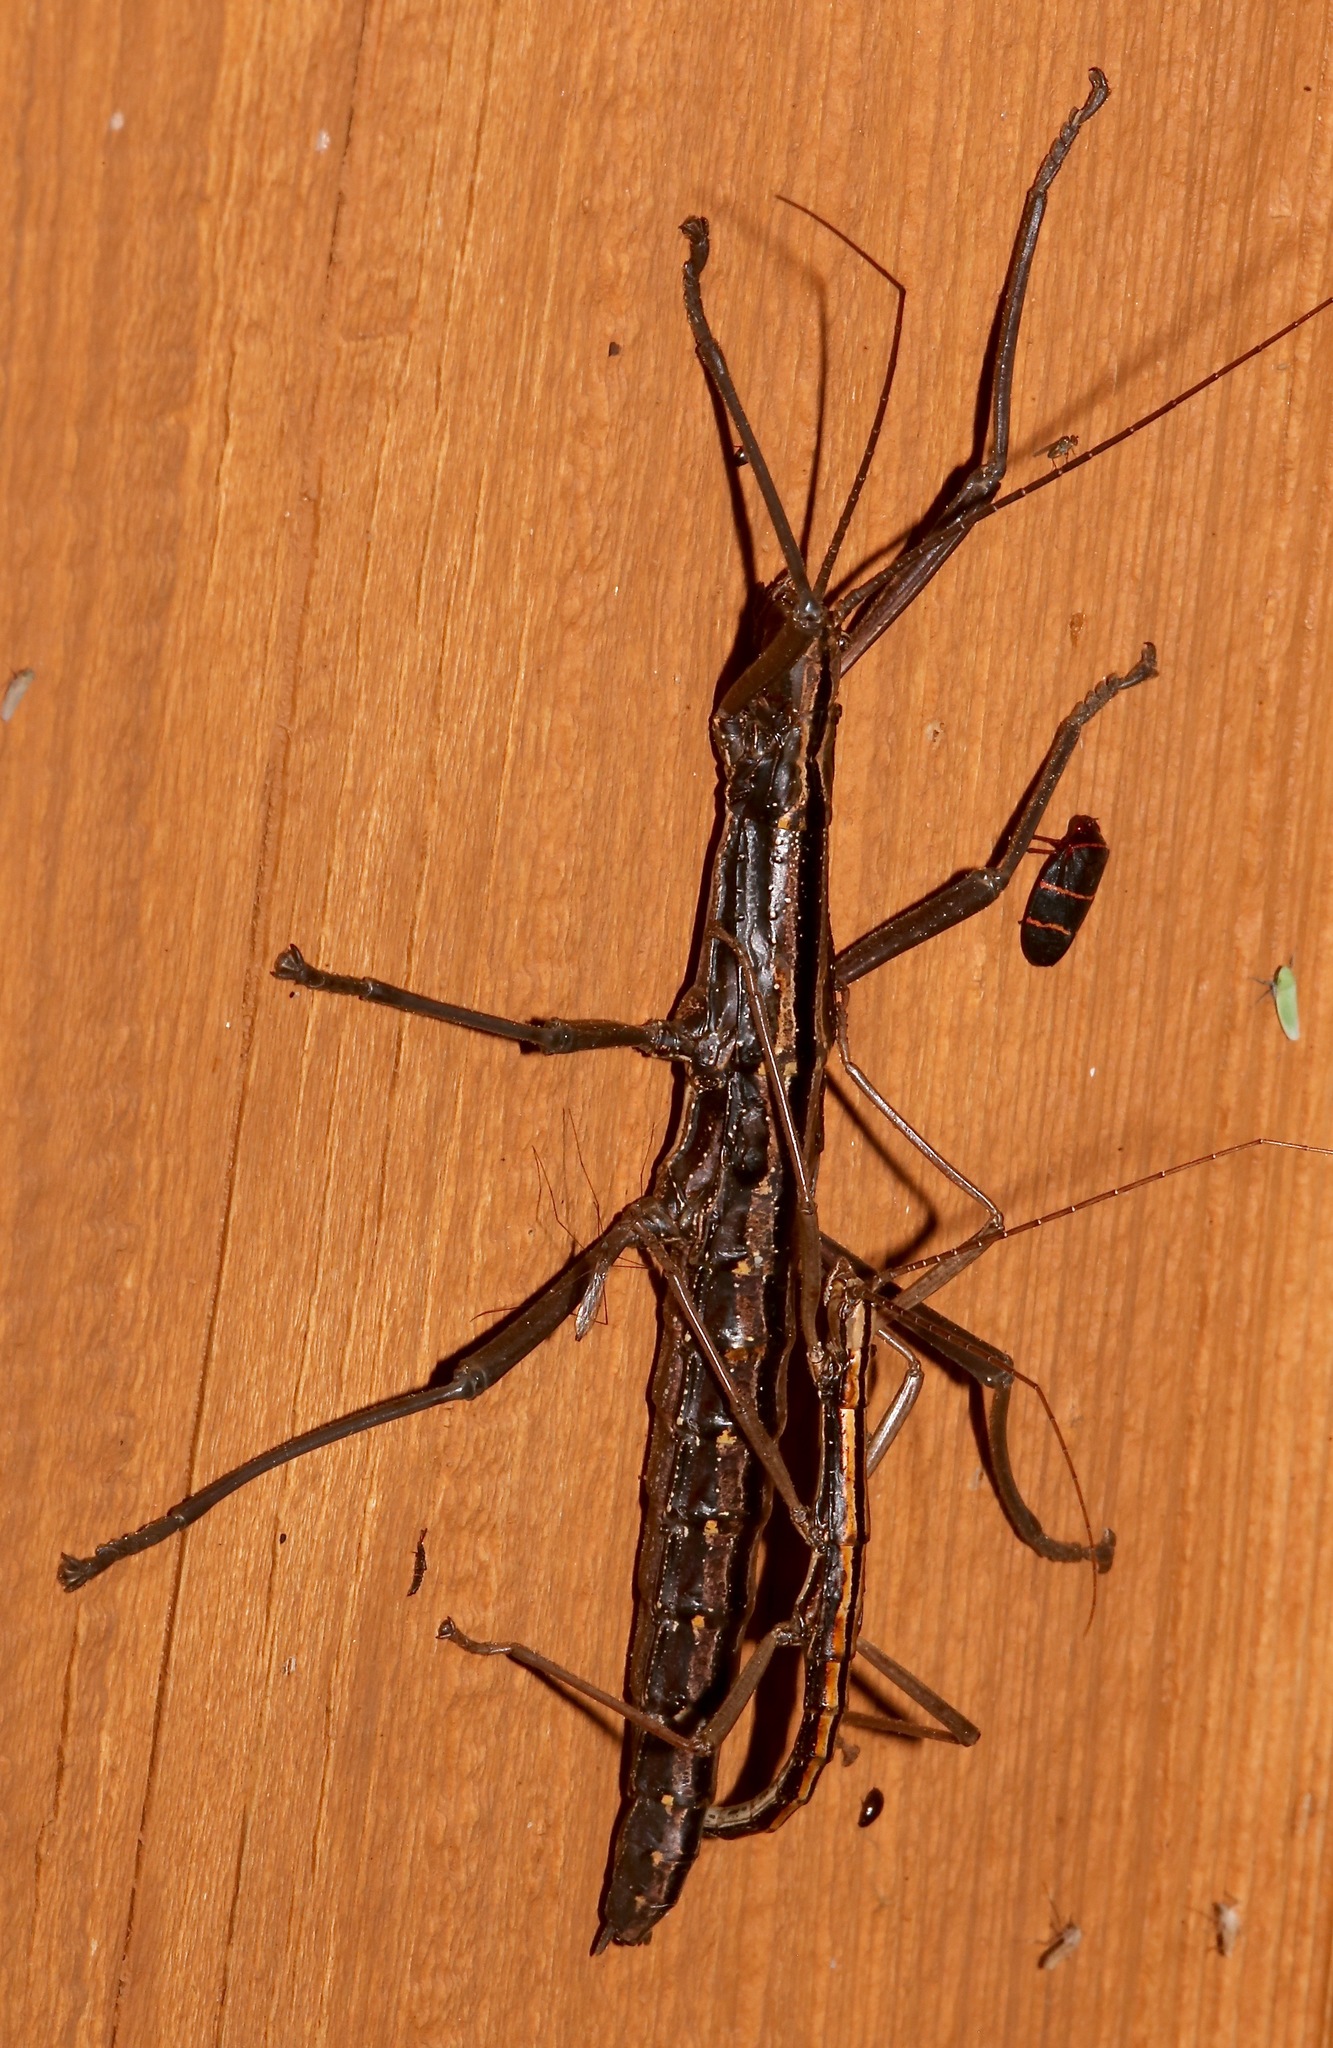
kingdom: Animalia
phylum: Arthropoda
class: Insecta
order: Phasmida
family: Pseudophasmatidae
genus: Anisomorpha
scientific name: Anisomorpha buprestoides
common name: Florida stick insect
